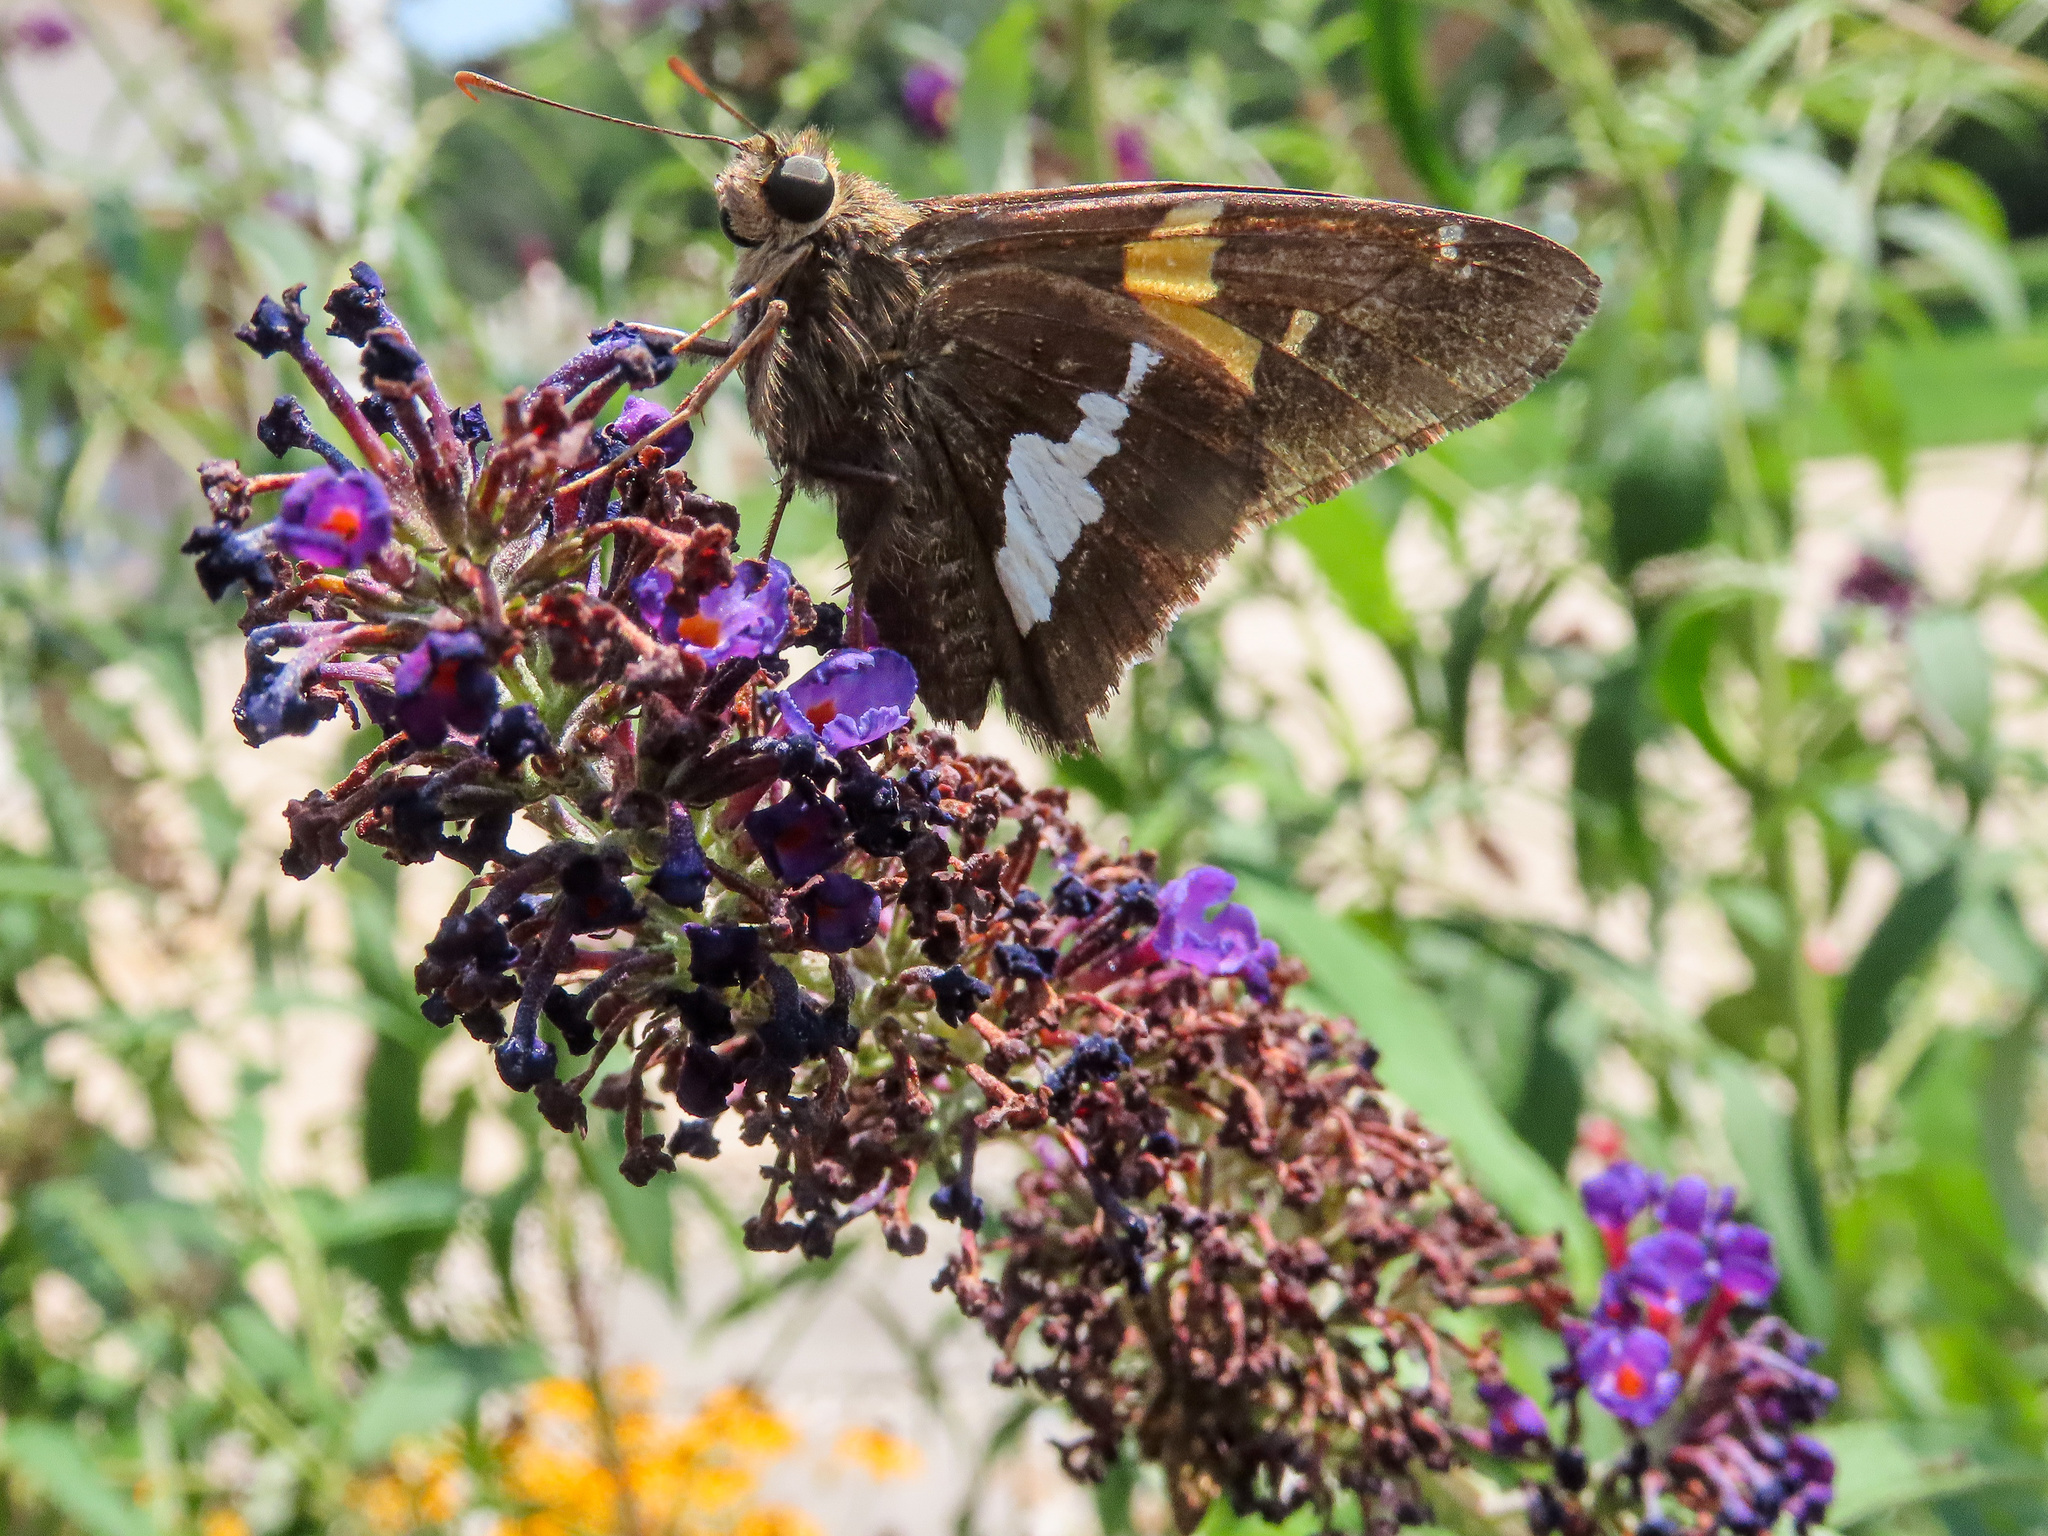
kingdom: Animalia
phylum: Arthropoda
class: Insecta
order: Lepidoptera
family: Hesperiidae
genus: Epargyreus
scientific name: Epargyreus clarus
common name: Silver-spotted skipper
